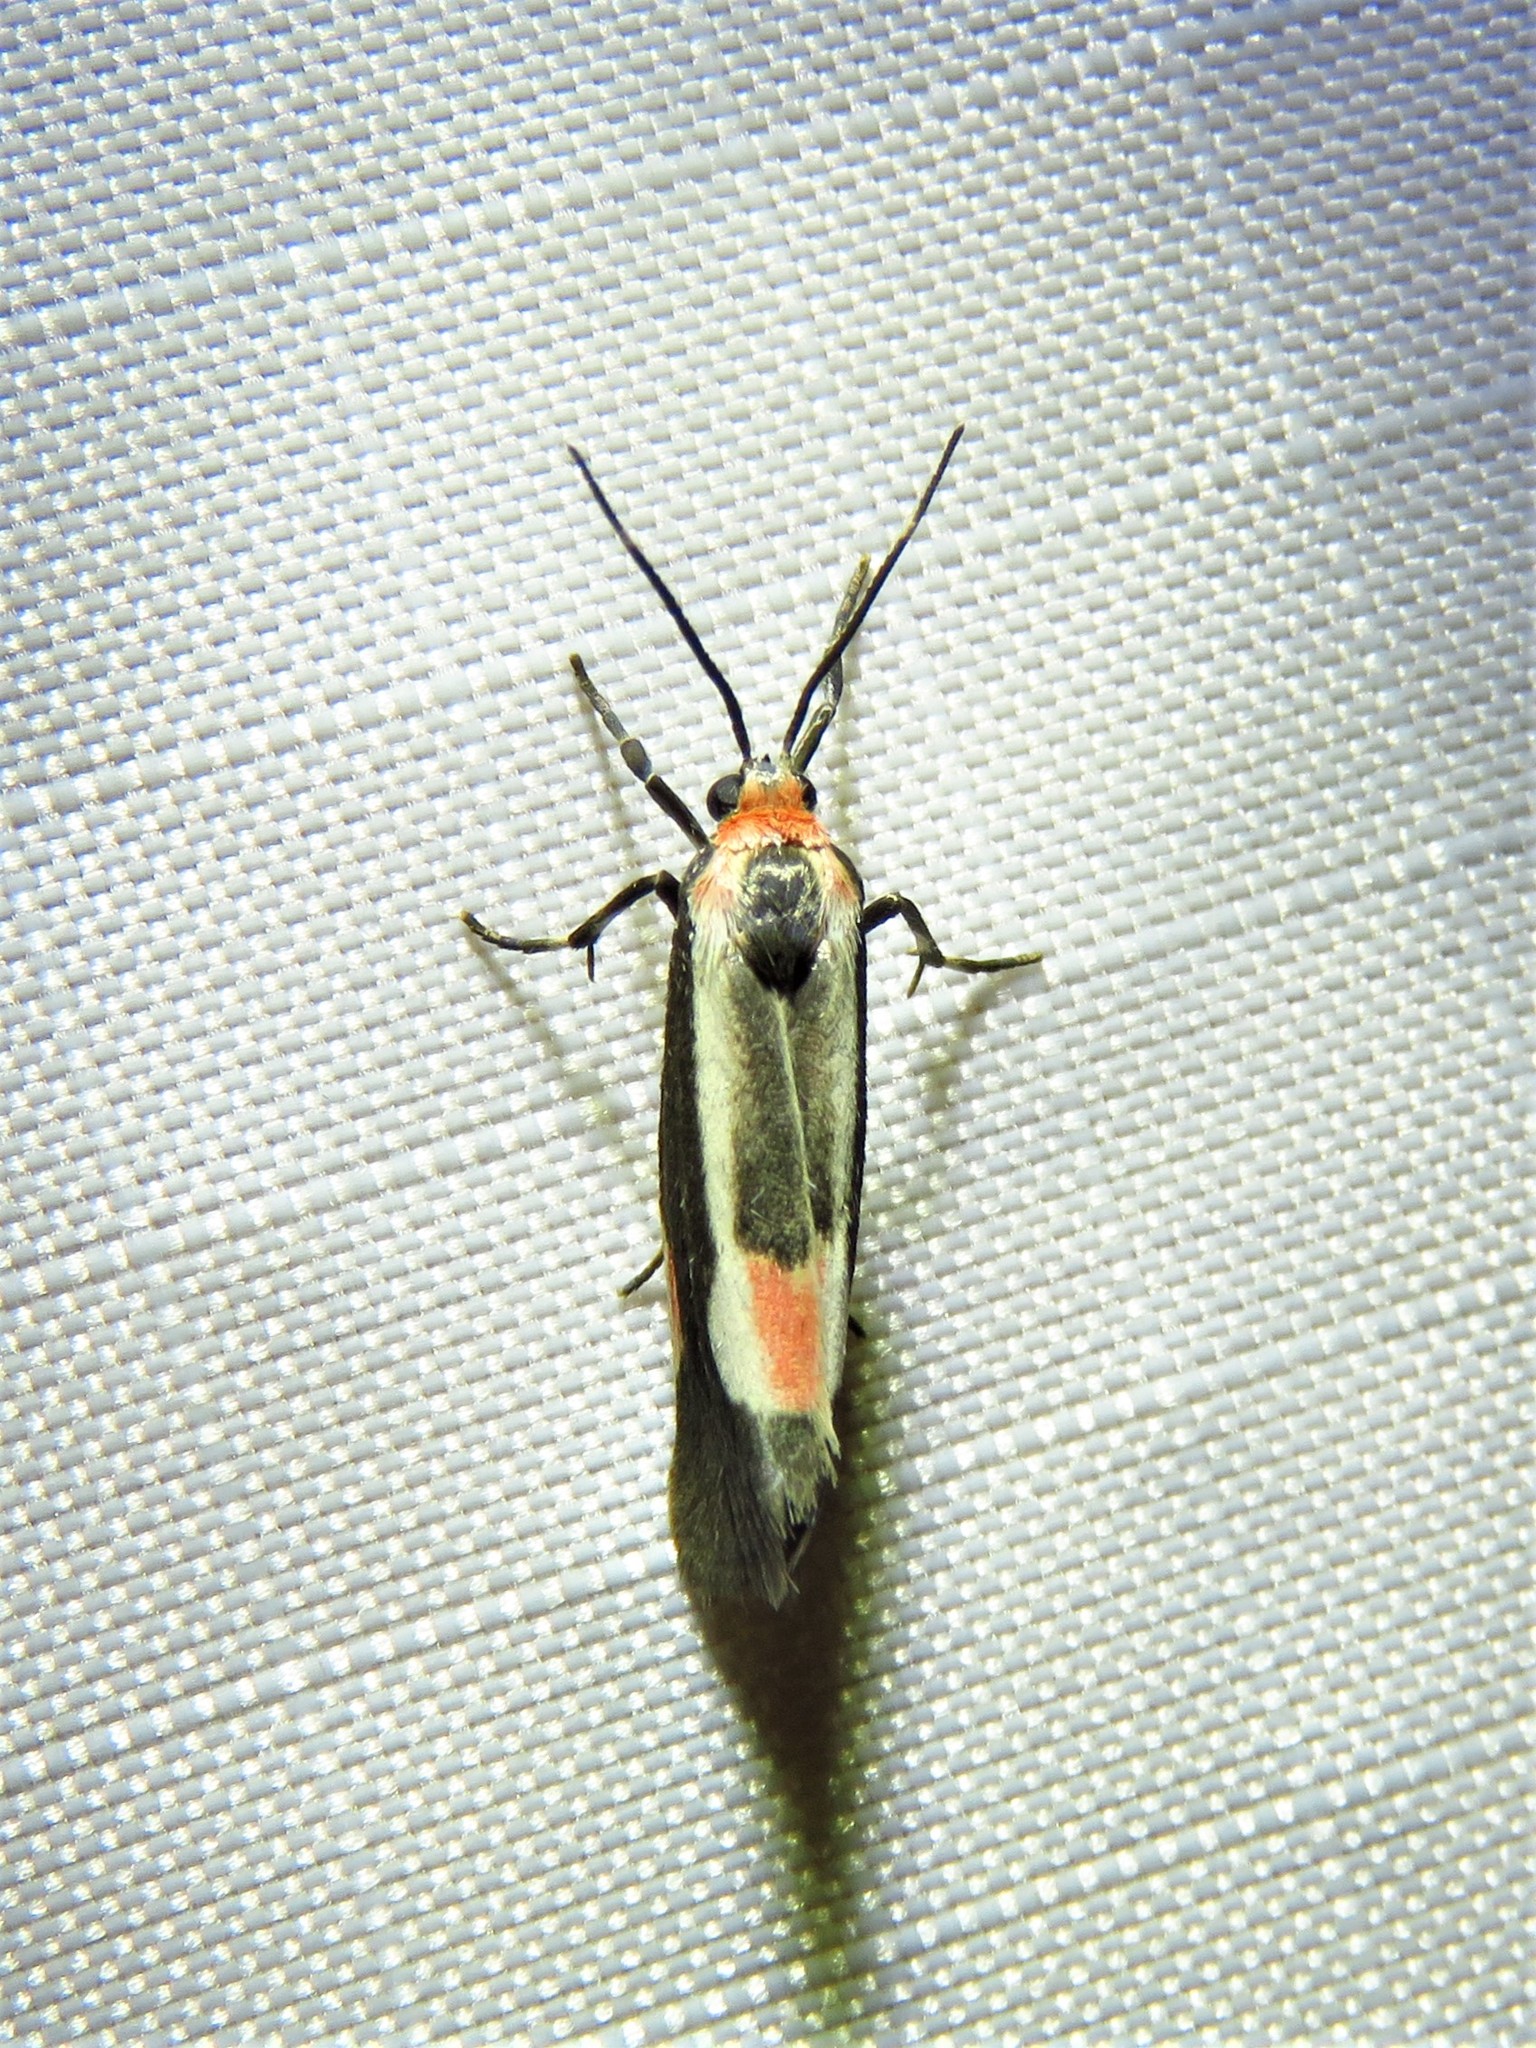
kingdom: Animalia
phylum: Arthropoda
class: Insecta
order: Lepidoptera
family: Erebidae
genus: Cisthene
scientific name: Cisthene packardii
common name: Packard's lichen moth
